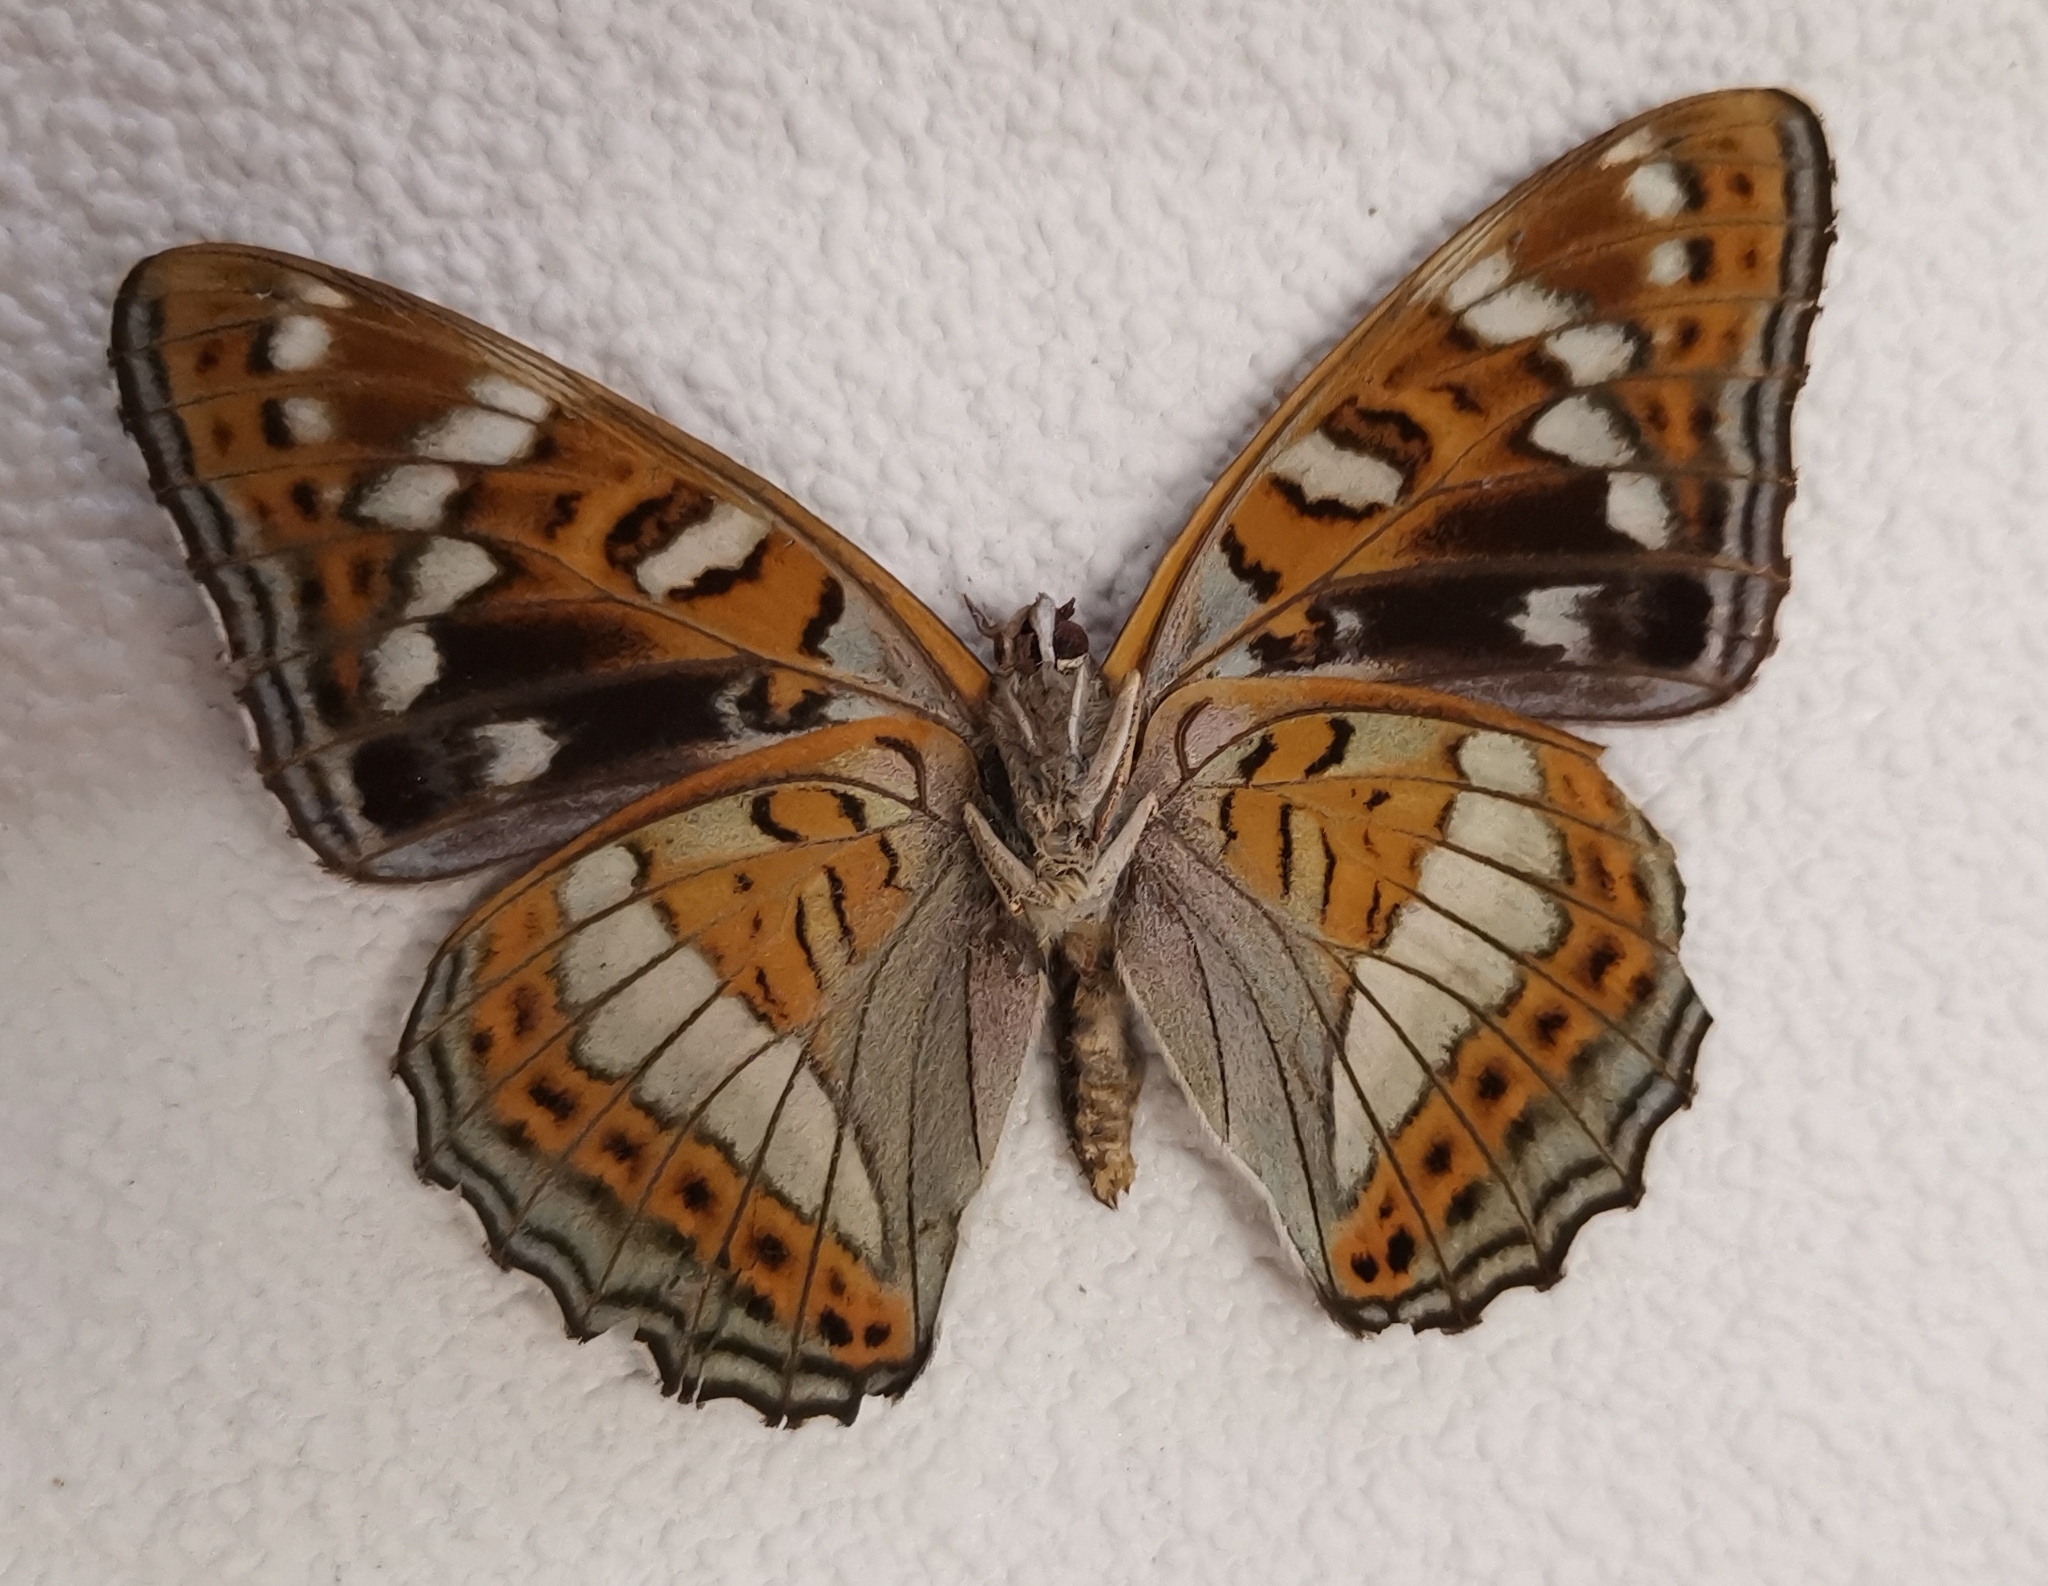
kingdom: Animalia
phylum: Arthropoda
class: Insecta
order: Lepidoptera
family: Nymphalidae
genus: Limenitis
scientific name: Limenitis populi
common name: Poplar admiral
